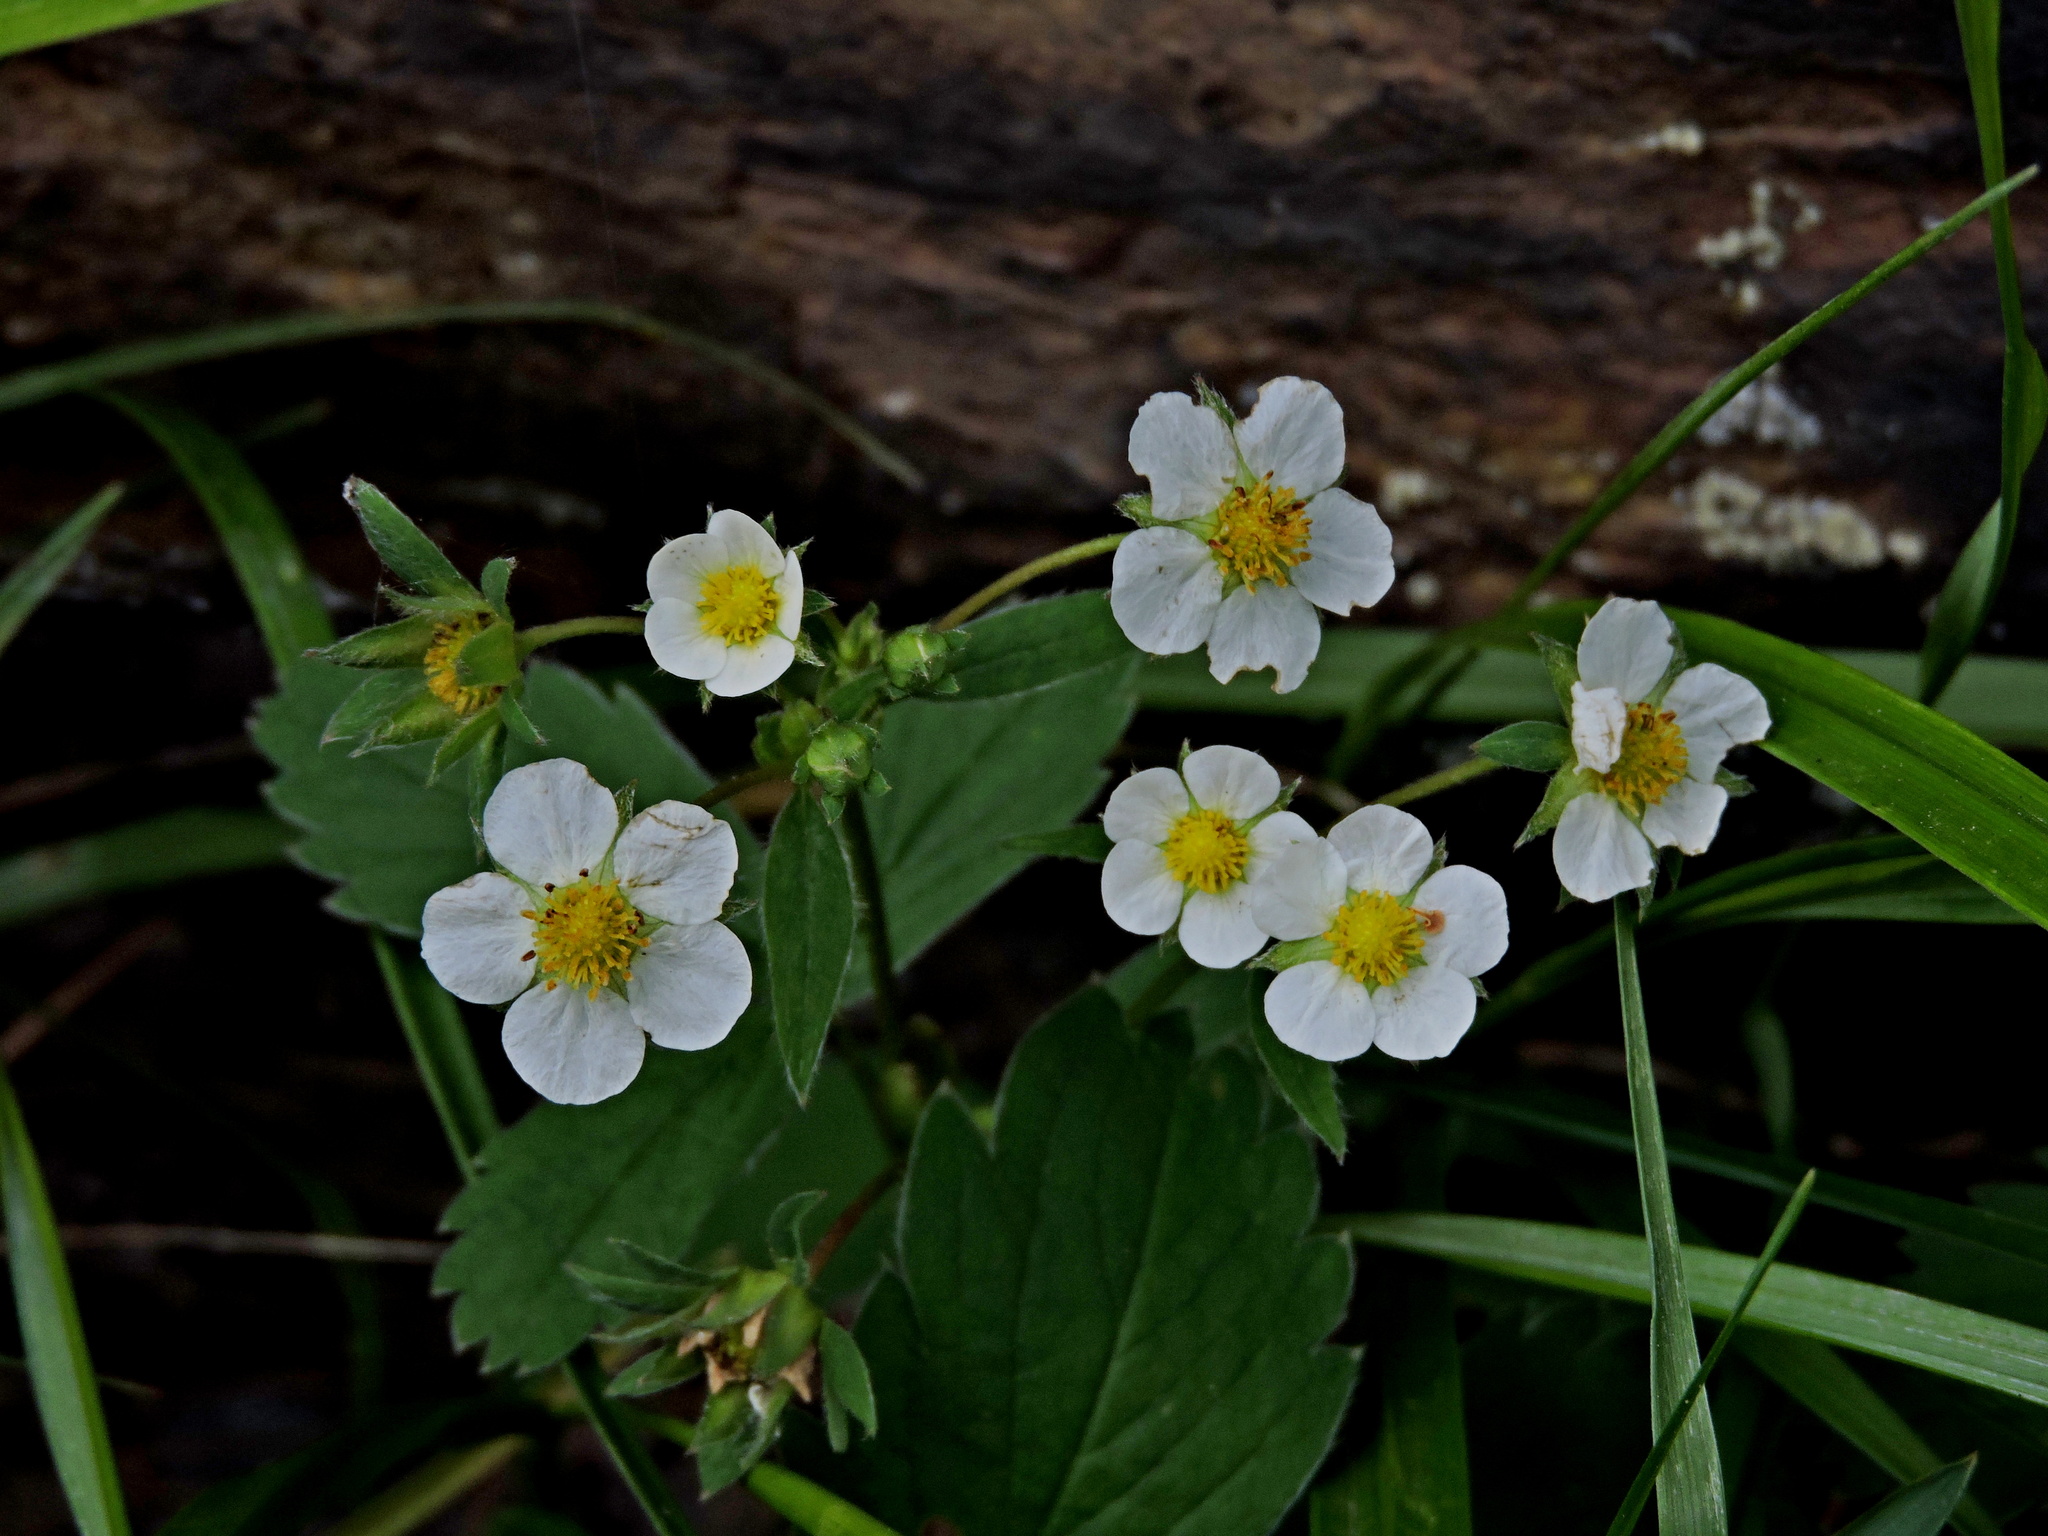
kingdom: Plantae
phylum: Tracheophyta
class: Magnoliopsida
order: Rosales
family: Rosaceae
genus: Fragaria
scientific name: Fragaria virginiana
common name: Thickleaved wild strawberry
